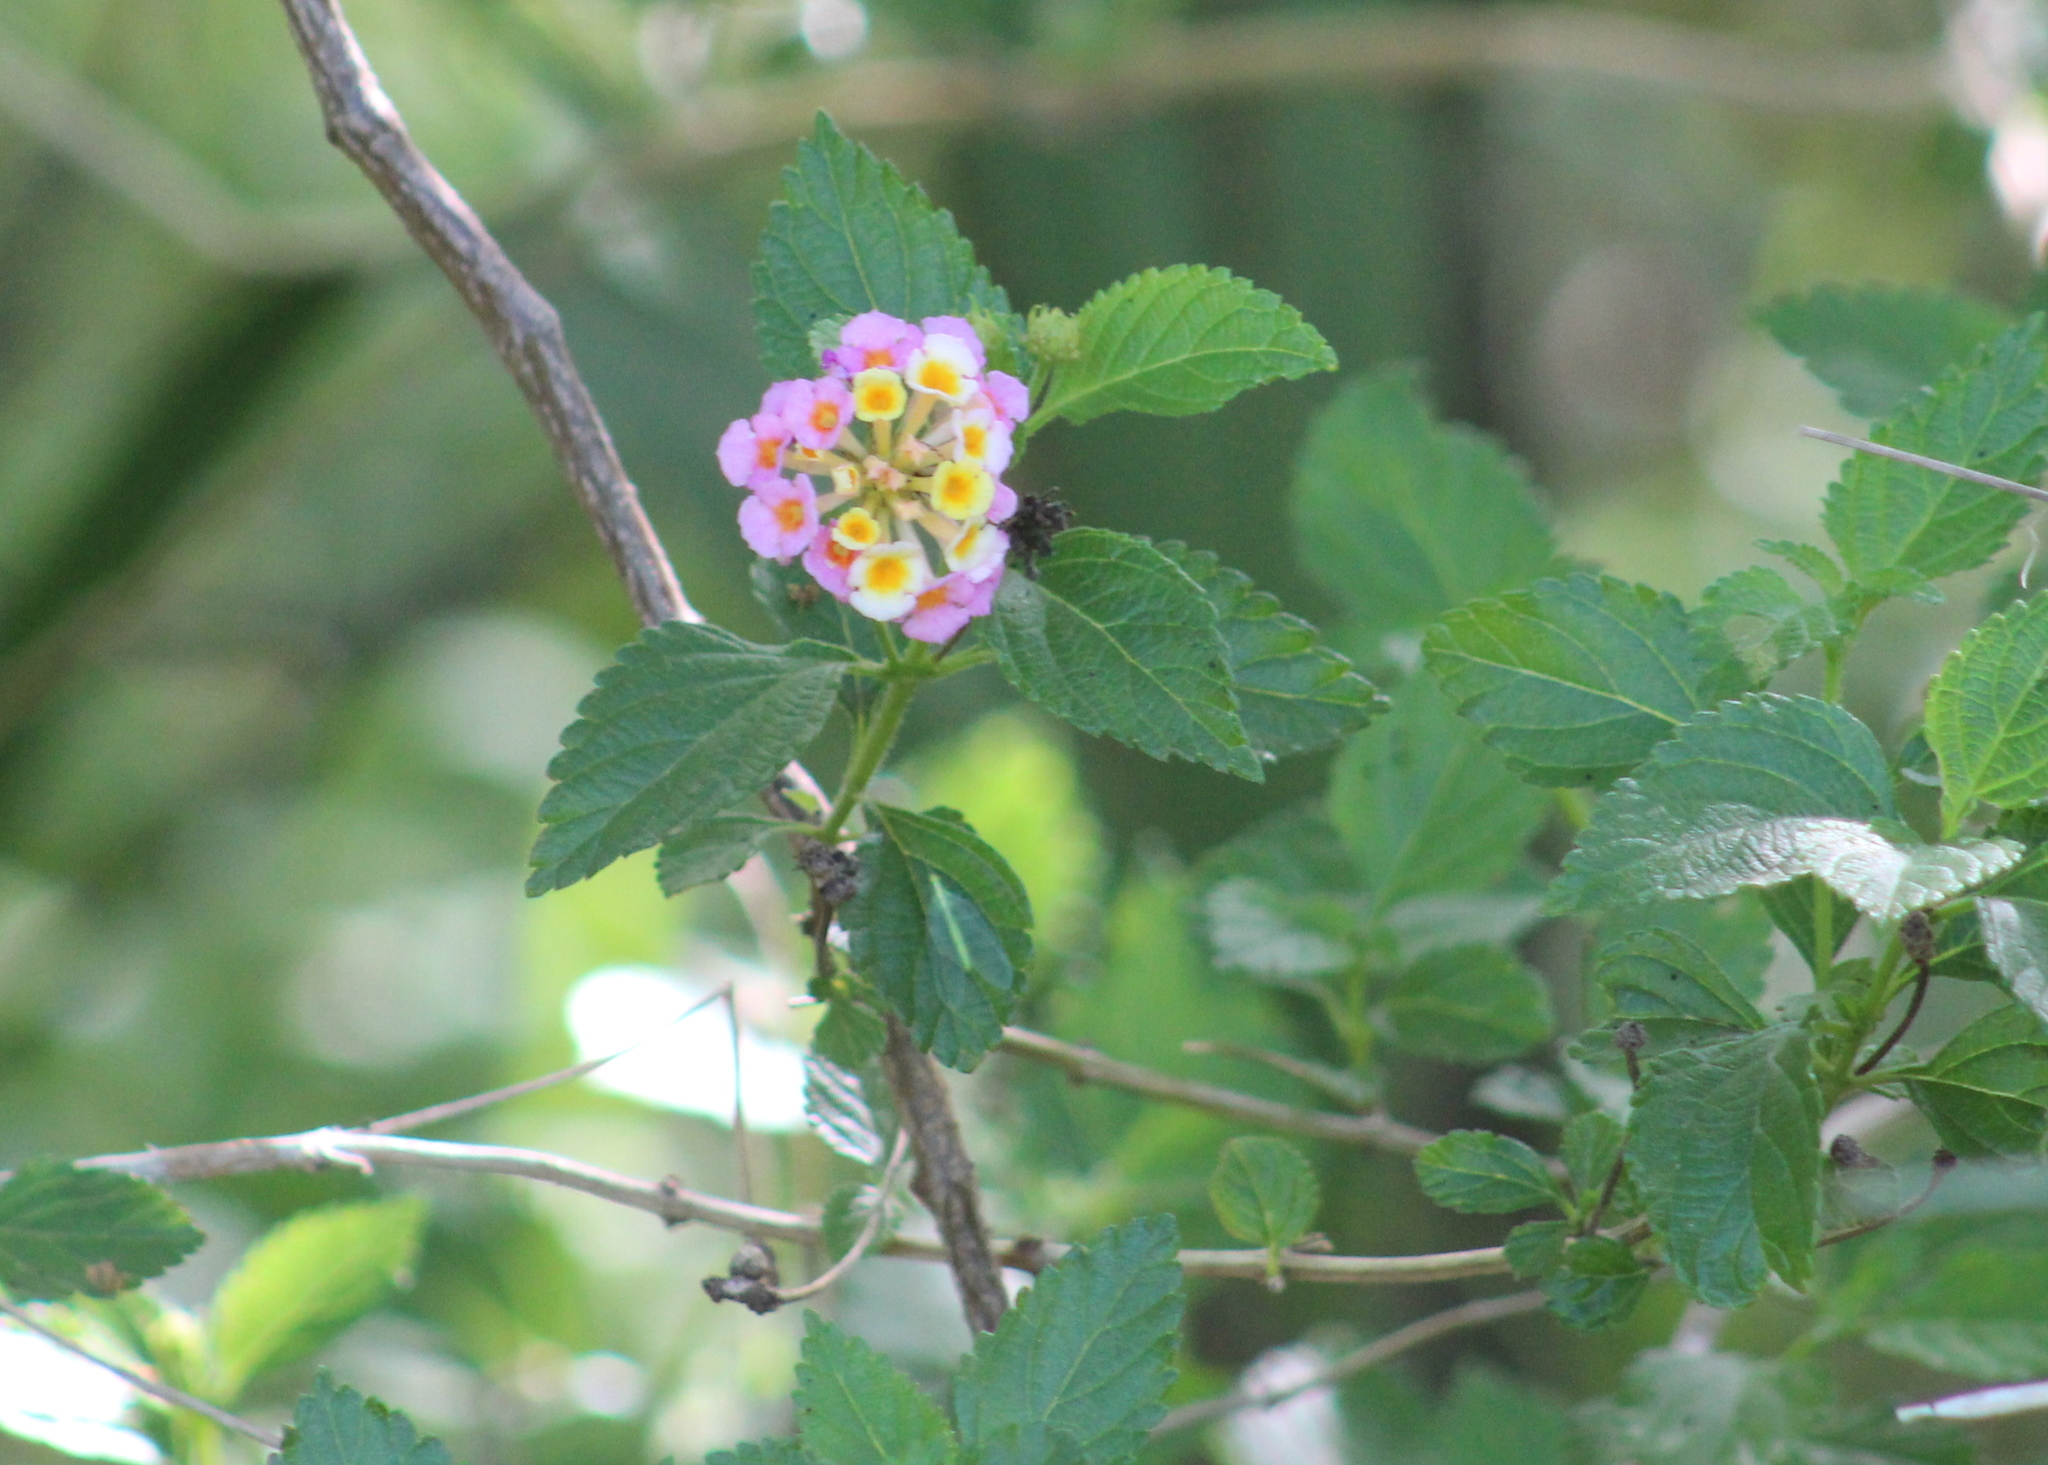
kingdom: Plantae
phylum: Tracheophyta
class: Magnoliopsida
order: Lamiales
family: Verbenaceae
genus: Lantana
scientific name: Lantana strigocamara
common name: Lantana
